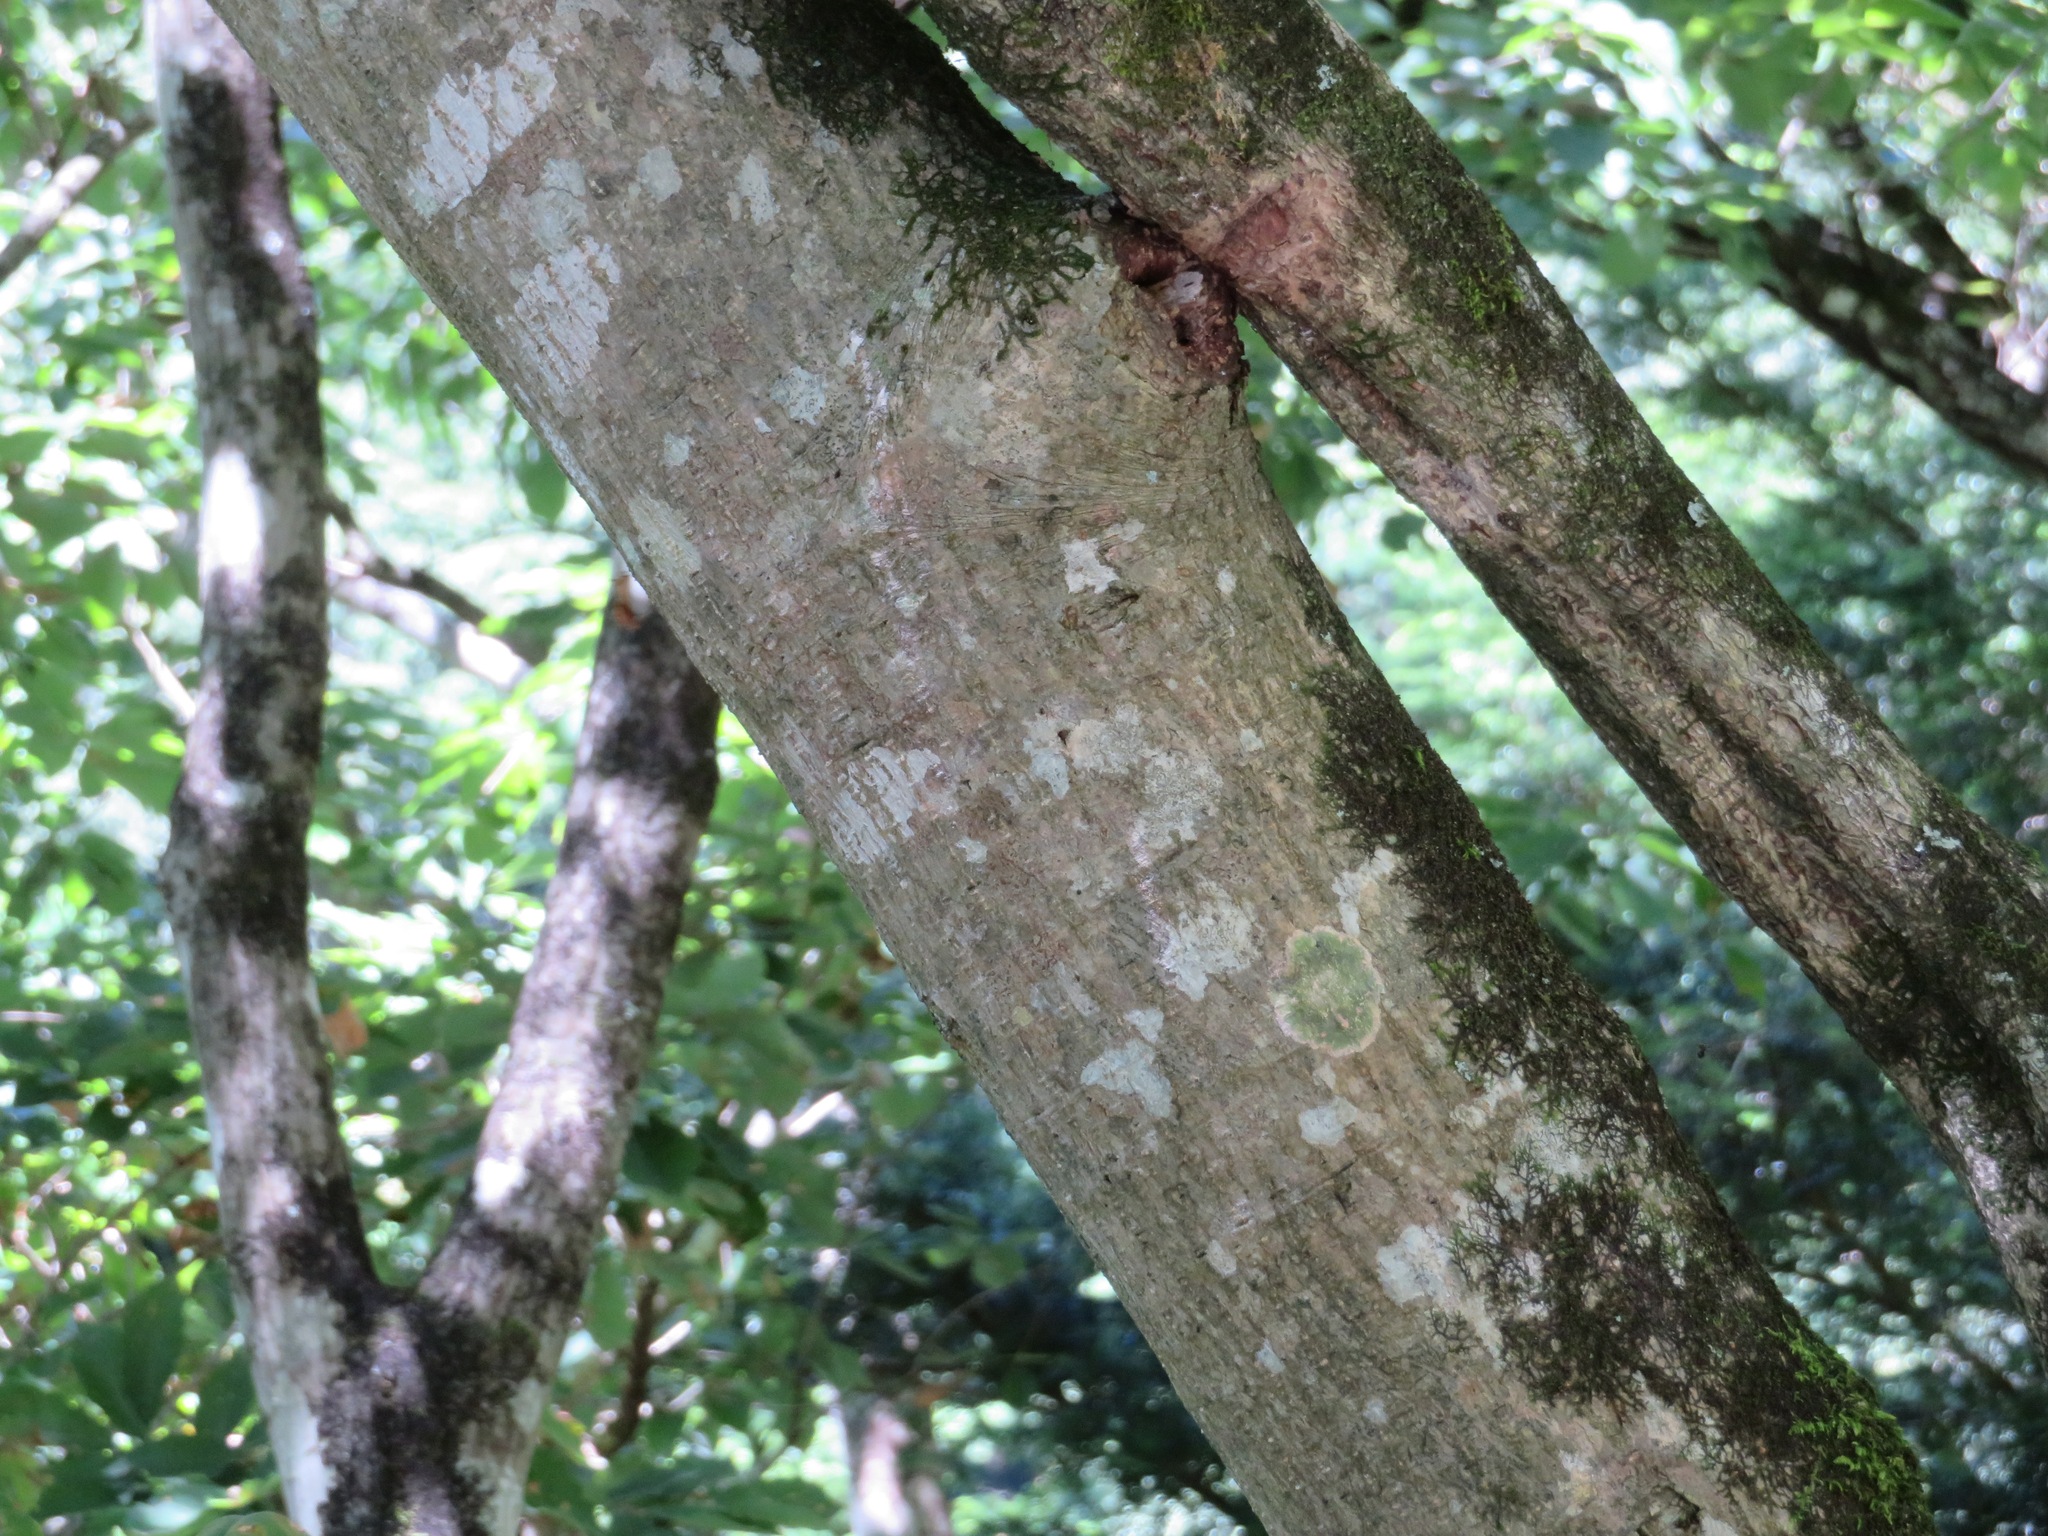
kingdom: Plantae
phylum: Tracheophyta
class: Magnoliopsida
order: Fabales
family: Fabaceae
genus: Albizia
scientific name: Albizia julibrissin
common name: Silktree
